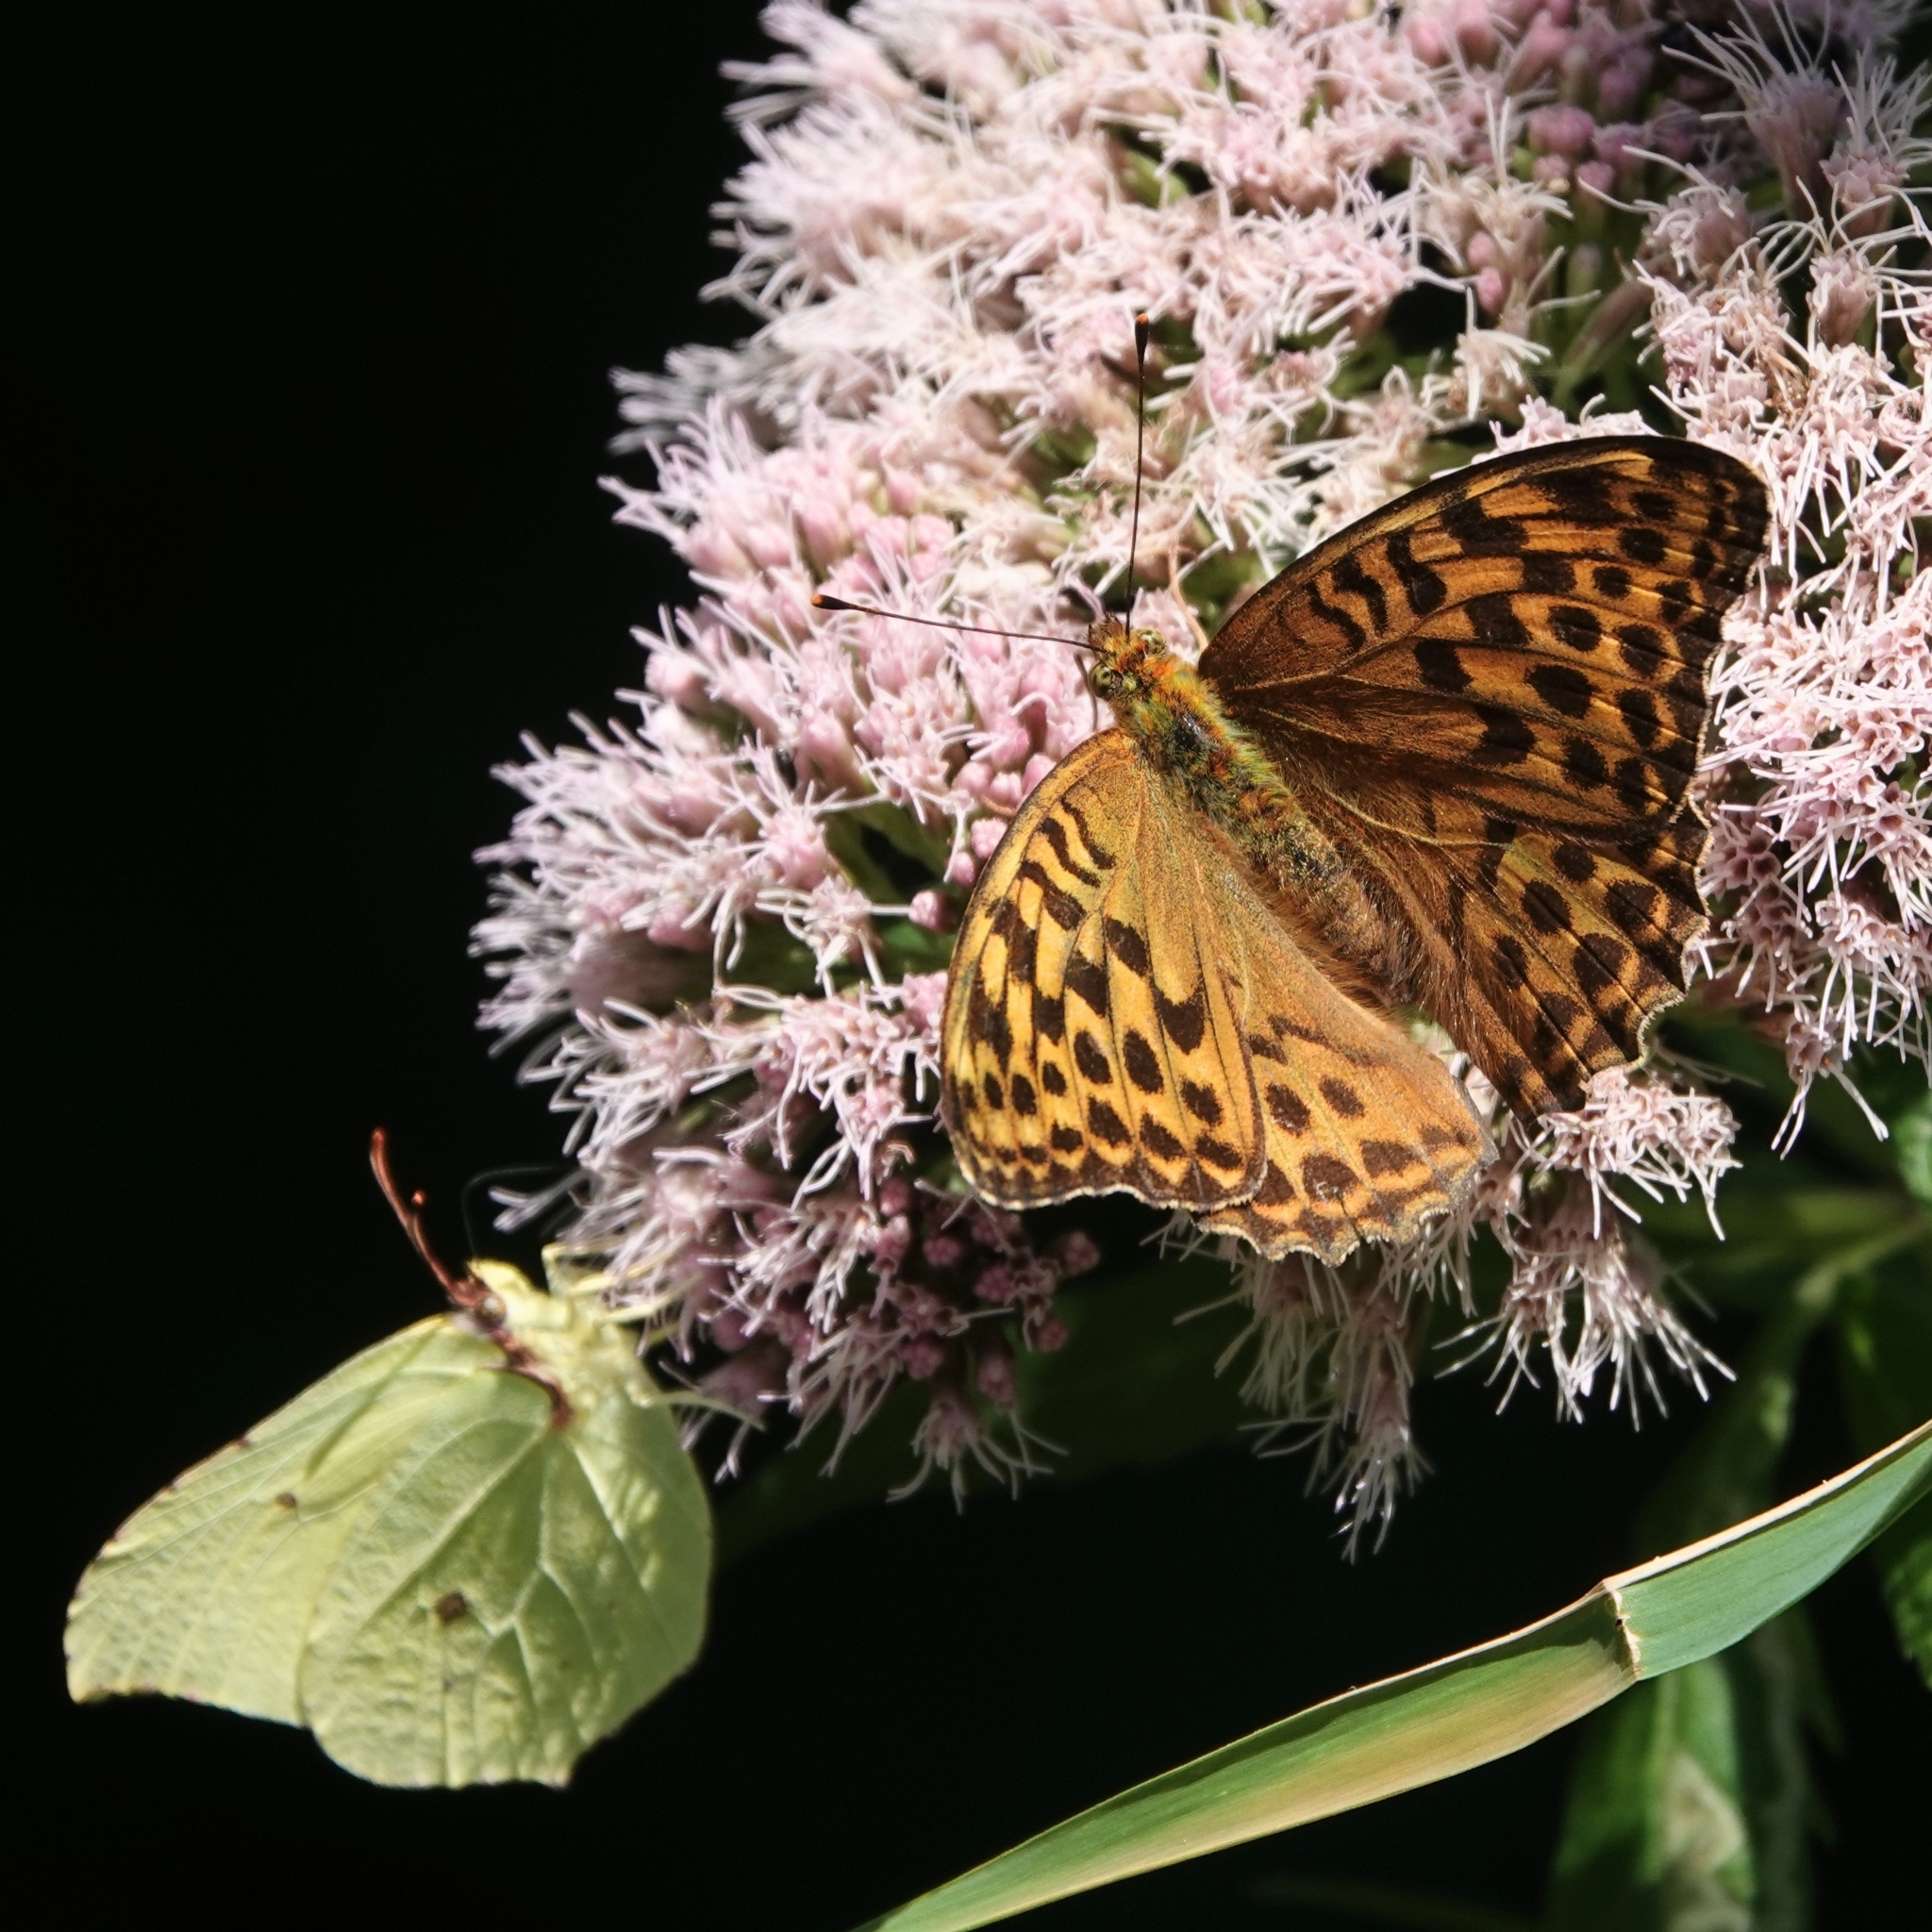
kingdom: Animalia
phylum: Arthropoda
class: Insecta
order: Lepidoptera
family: Nymphalidae
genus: Argynnis
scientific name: Argynnis paphia
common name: Silver-washed fritillary
